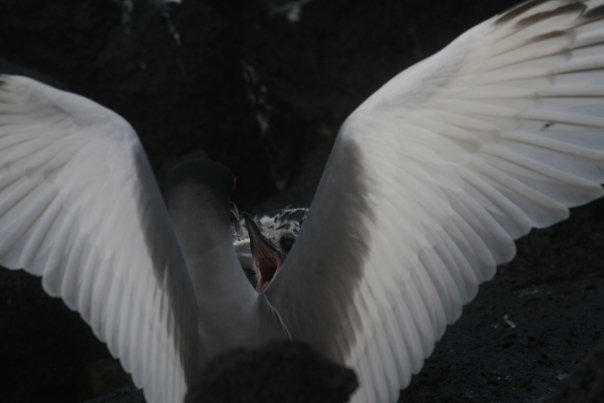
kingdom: Animalia
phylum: Chordata
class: Aves
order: Charadriiformes
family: Laridae
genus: Creagrus
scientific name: Creagrus furcatus
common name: Swallow-tailed gull
